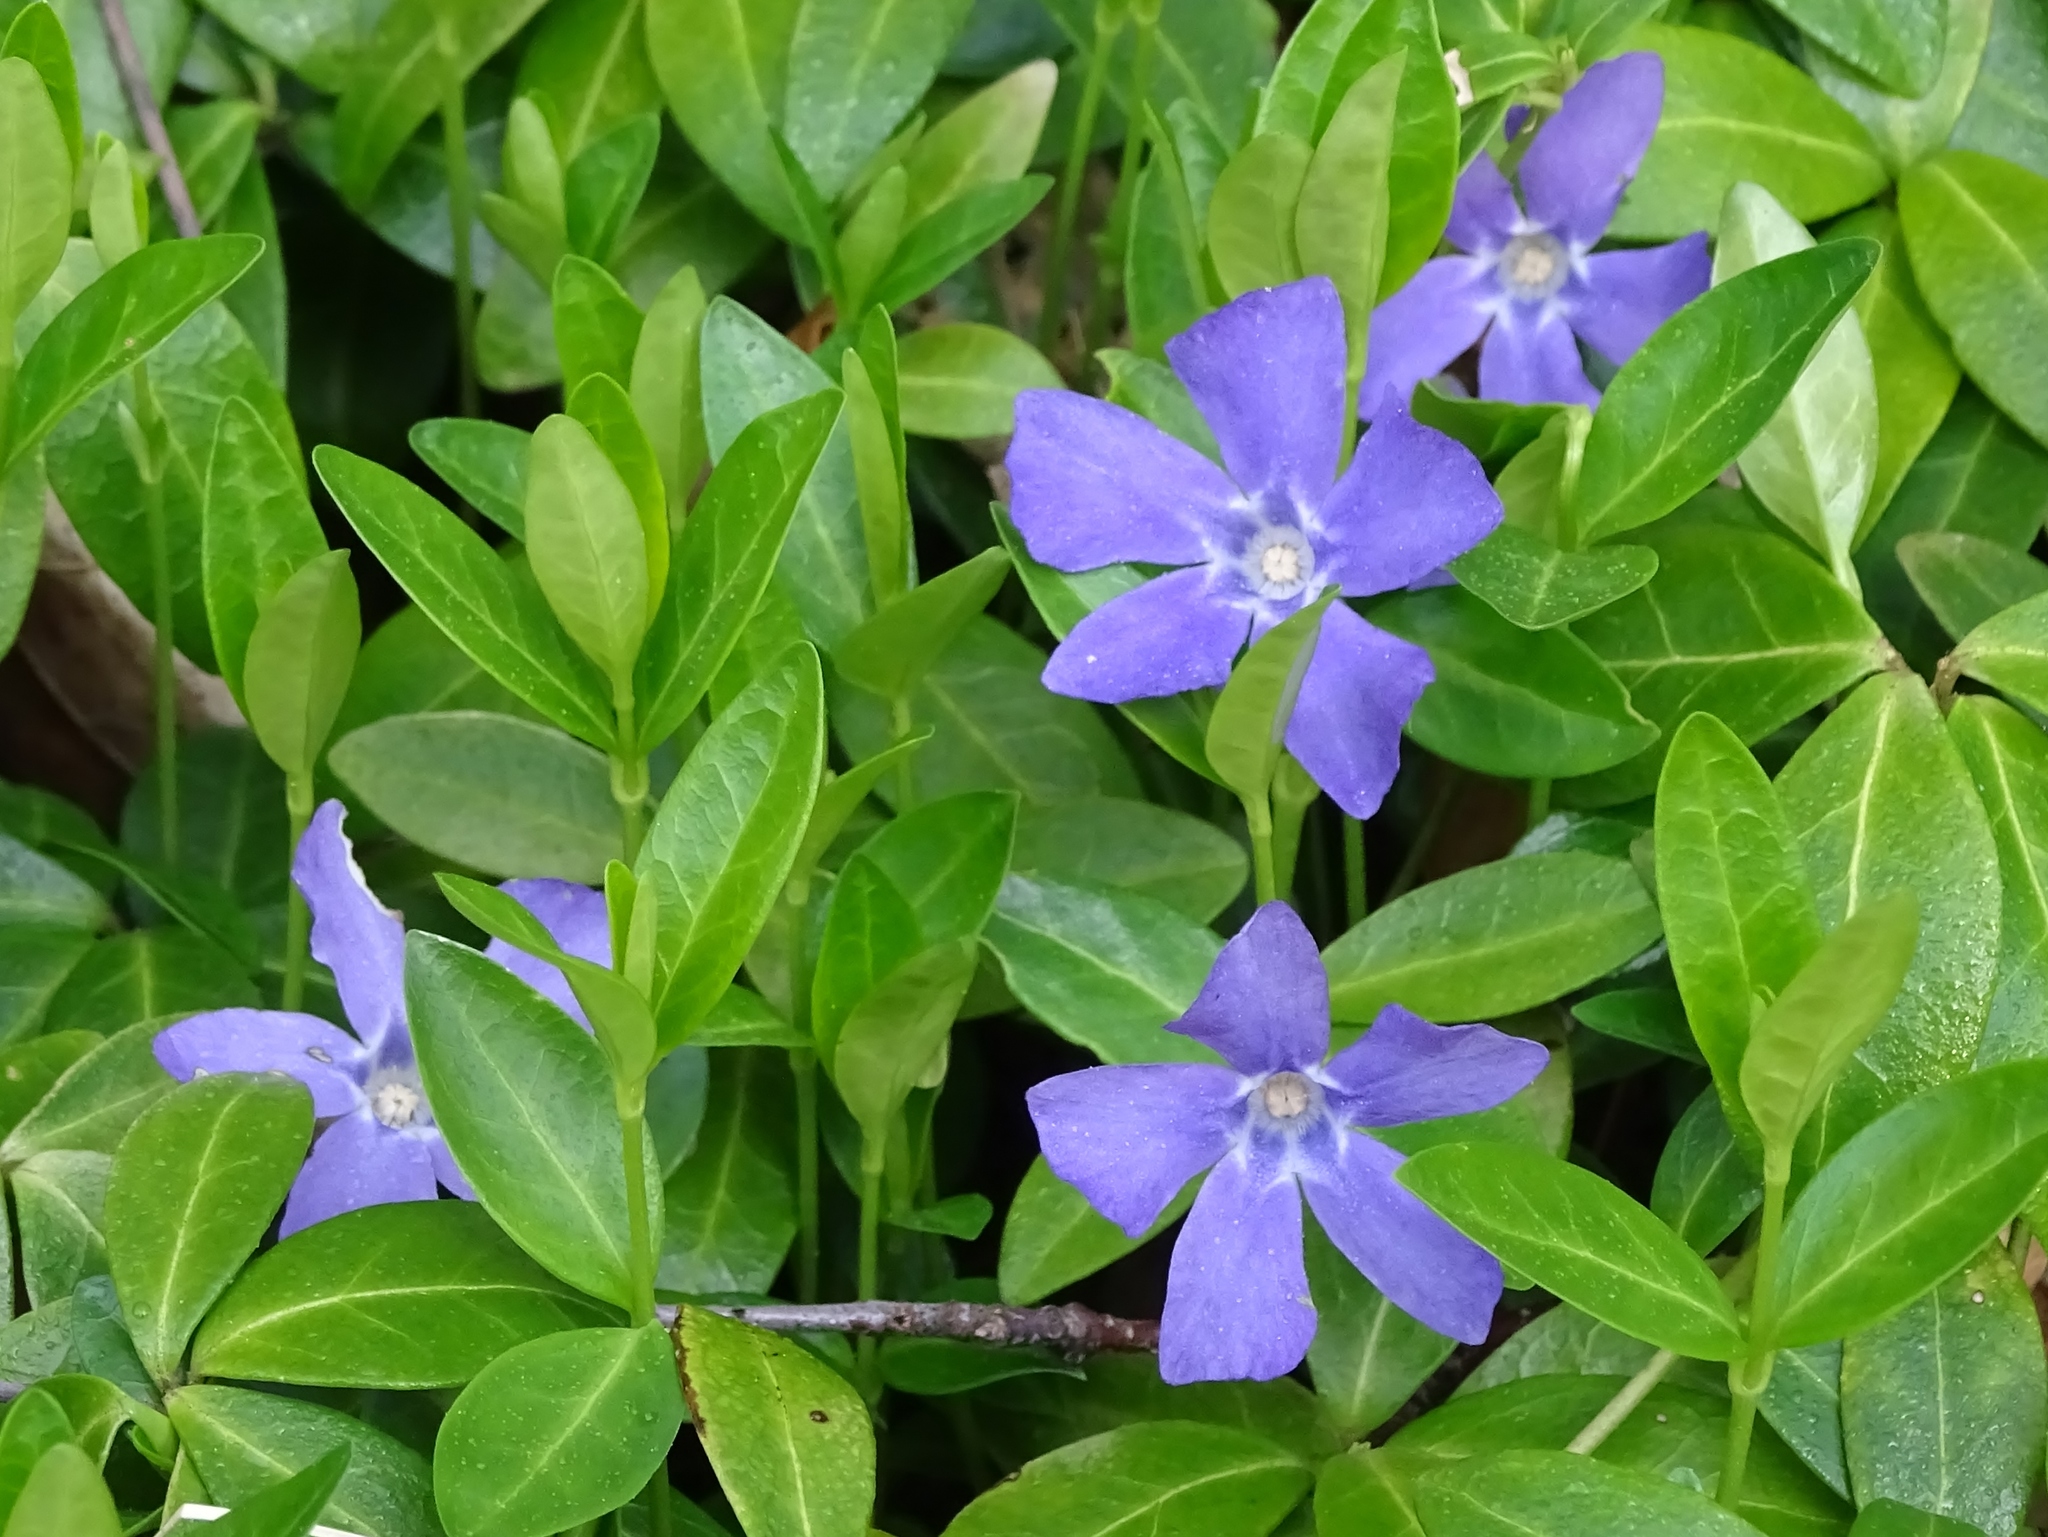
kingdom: Plantae
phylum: Tracheophyta
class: Magnoliopsida
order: Gentianales
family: Apocynaceae
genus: Vinca
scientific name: Vinca minor
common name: Lesser periwinkle
